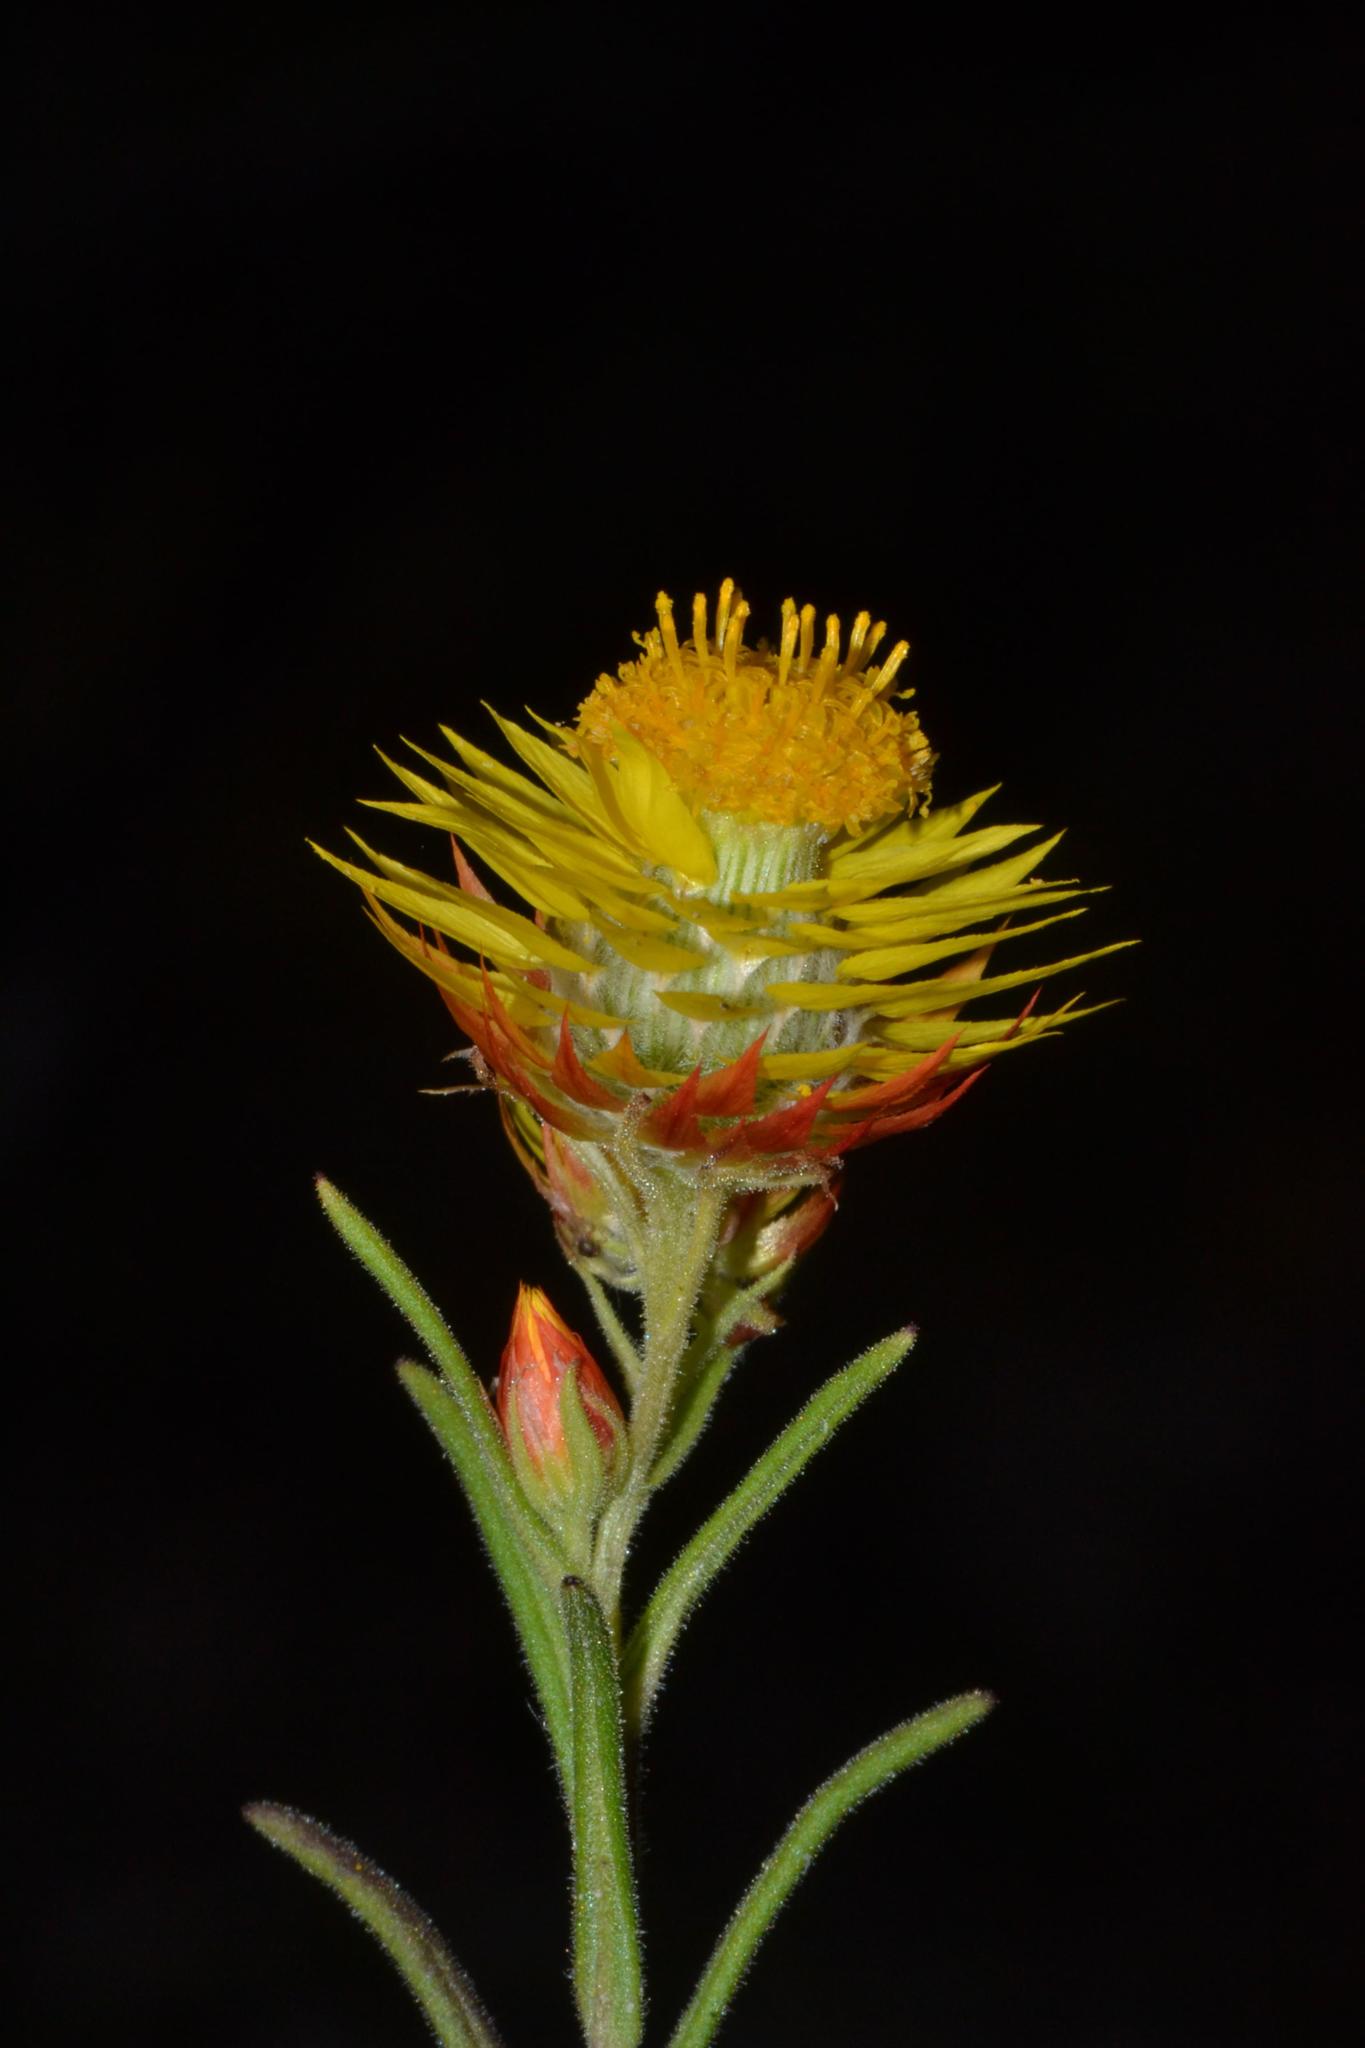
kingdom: Plantae
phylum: Tracheophyta
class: Magnoliopsida
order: Asterales
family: Asteraceae
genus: Waitzia
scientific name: Waitzia acuminata
